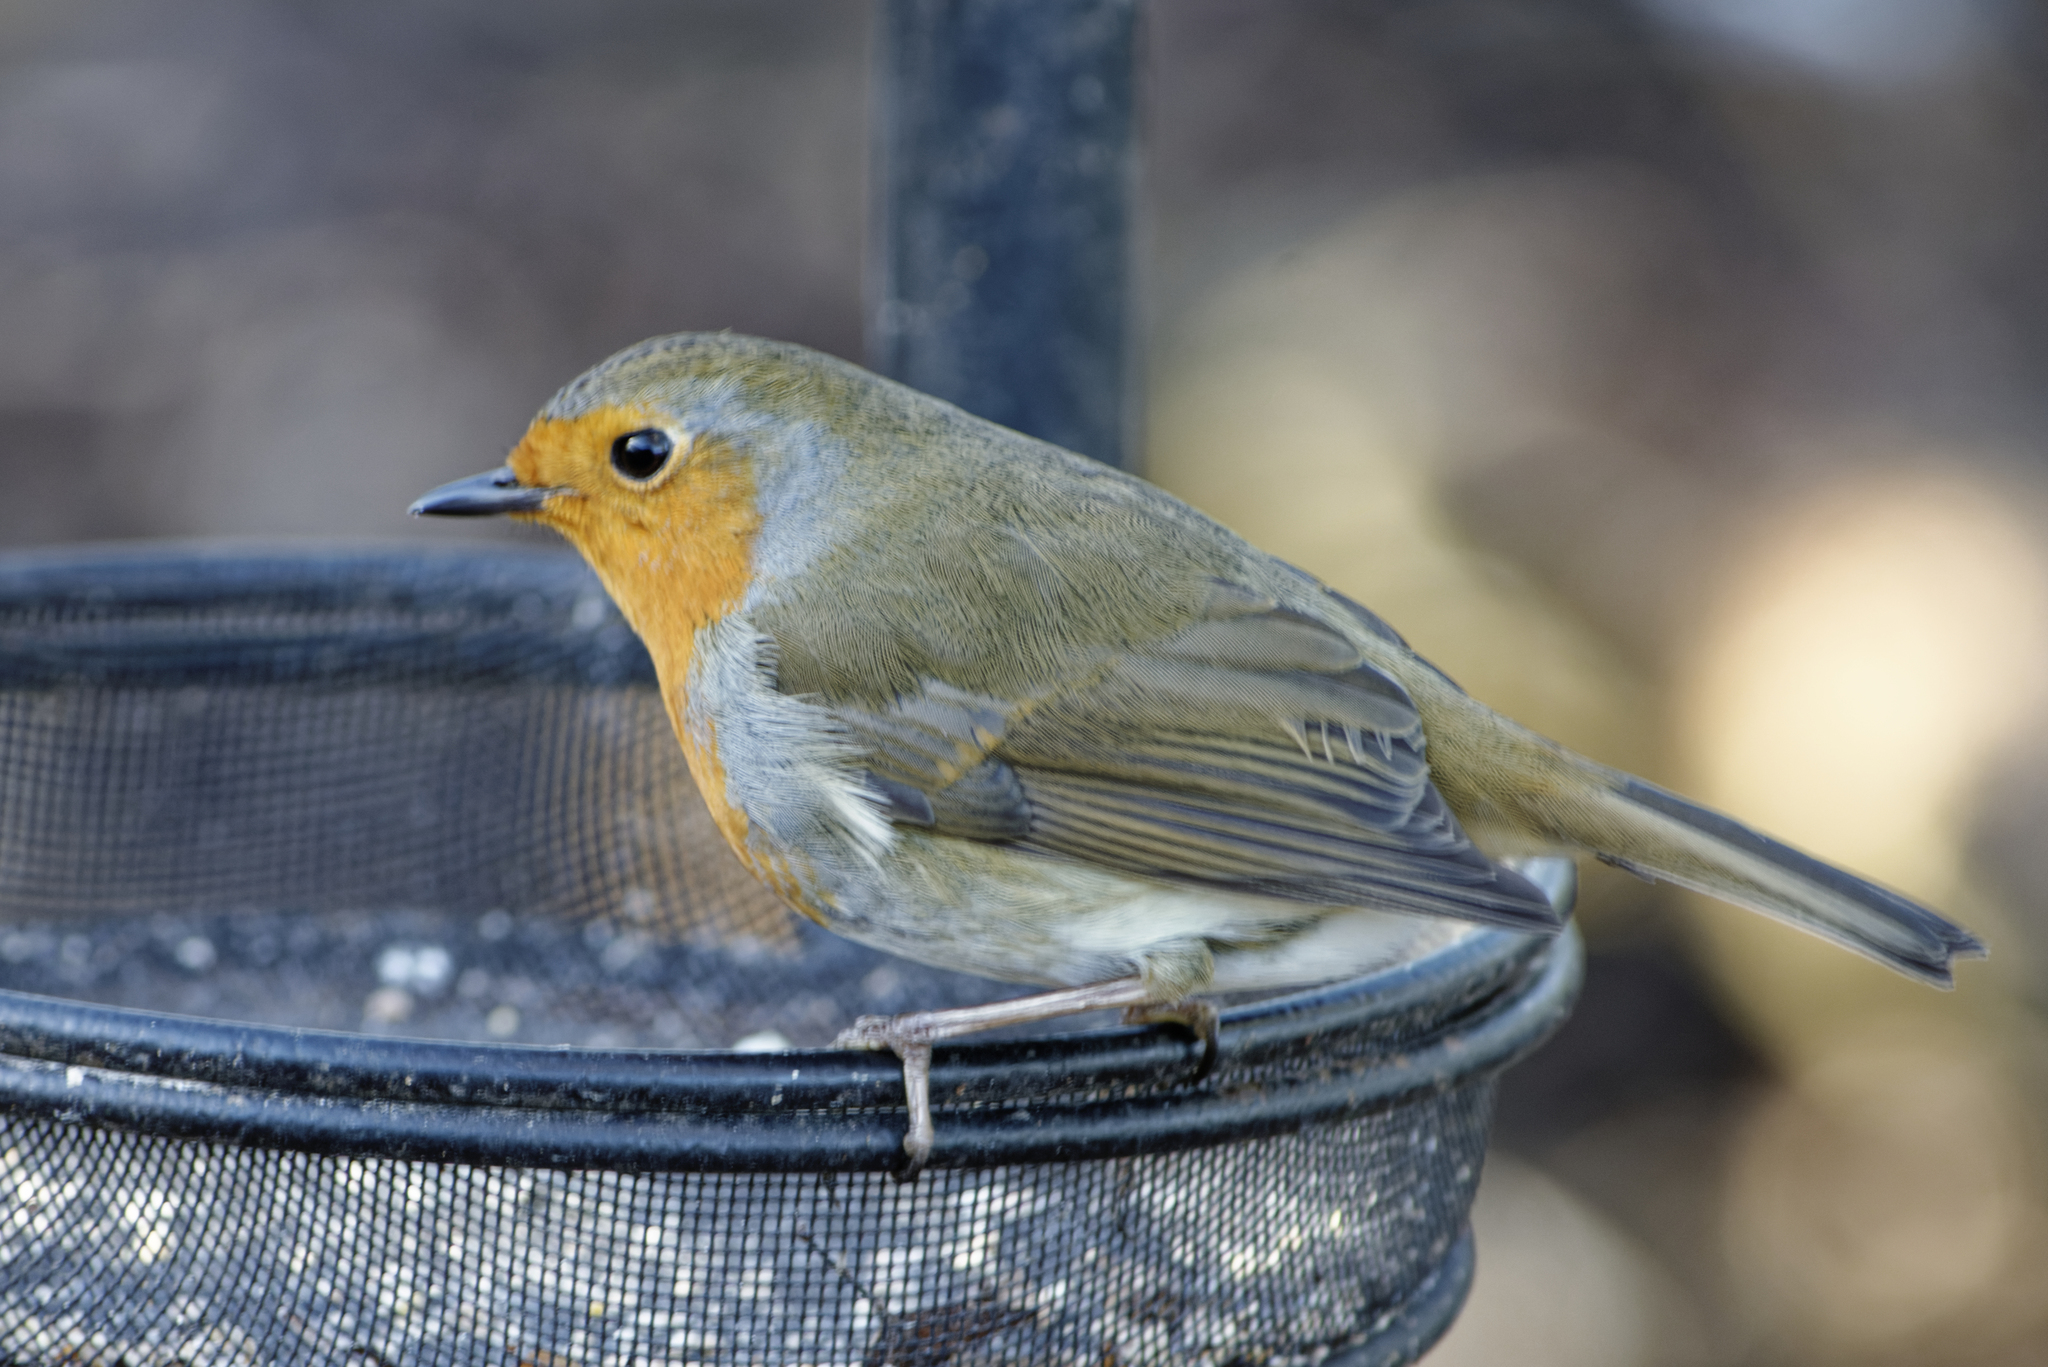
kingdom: Animalia
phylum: Chordata
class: Aves
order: Passeriformes
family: Muscicapidae
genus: Erithacus
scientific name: Erithacus rubecula
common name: European robin
